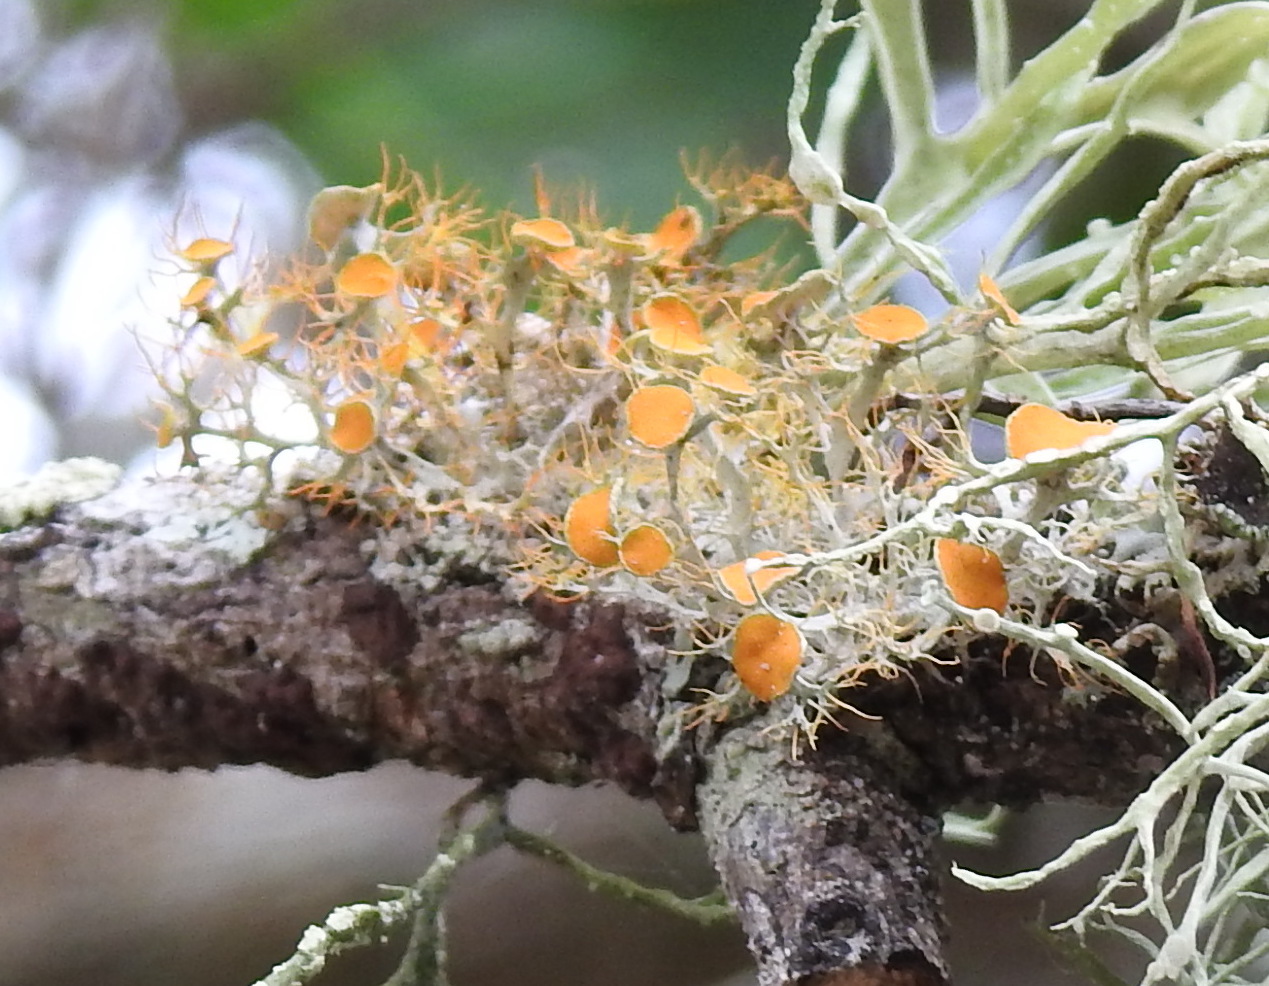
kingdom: Fungi
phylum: Ascomycota
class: Lecanoromycetes
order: Teloschistales
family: Teloschistaceae
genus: Teloschistes
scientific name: Teloschistes exilis
